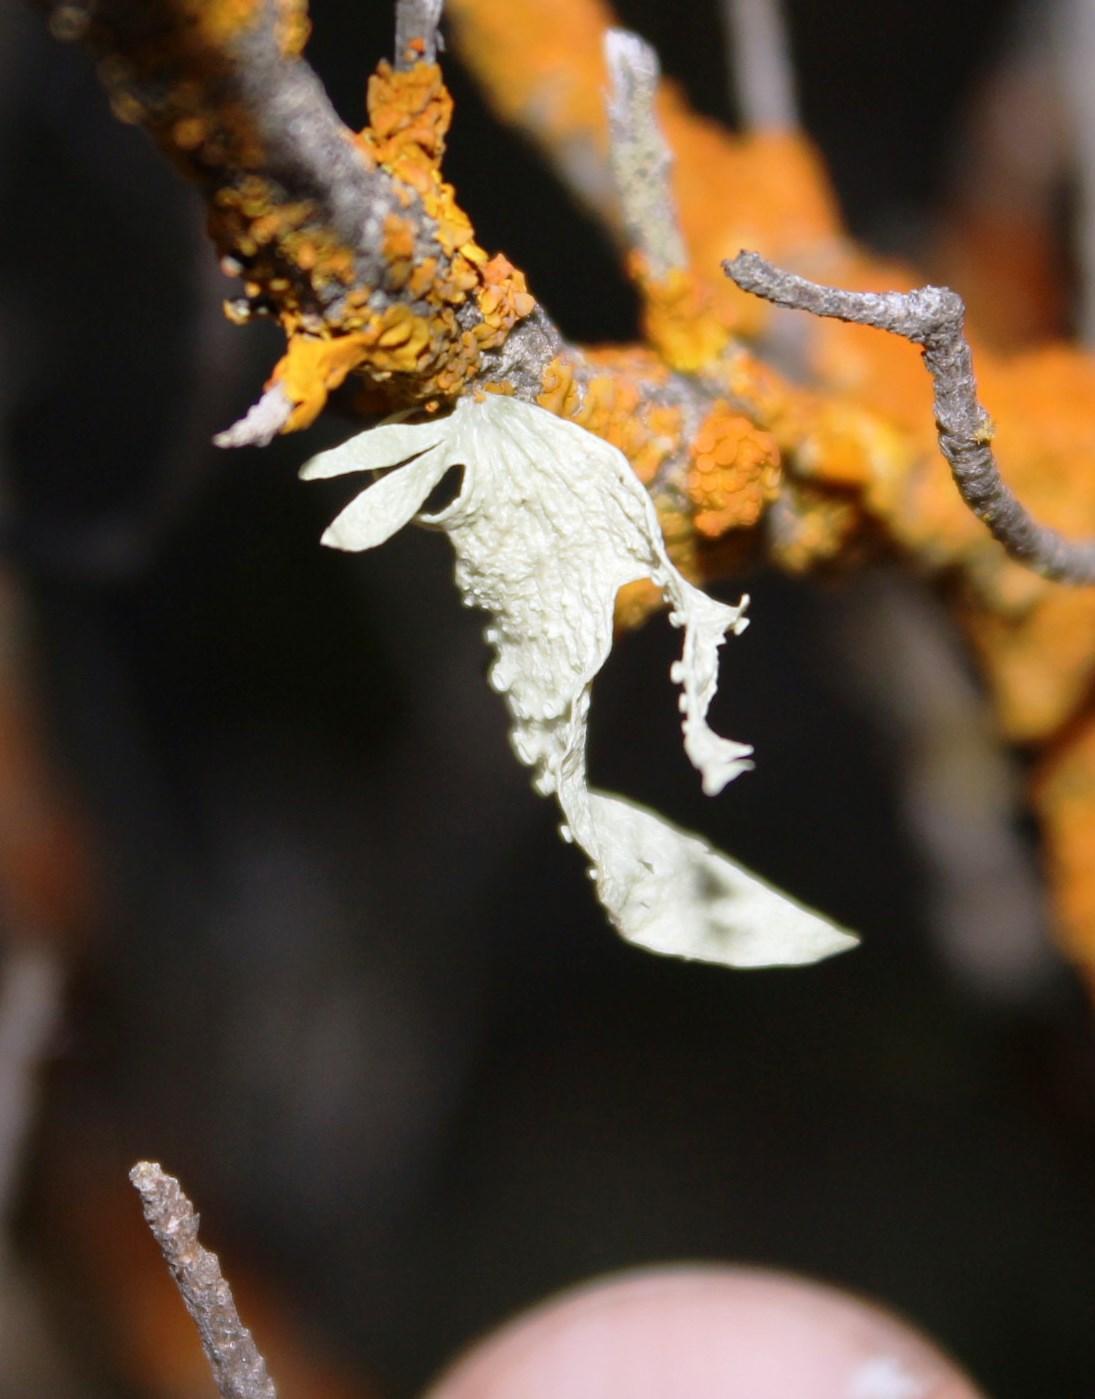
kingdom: Fungi
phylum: Ascomycota
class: Lecanoromycetes
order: Lecanorales
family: Ramalinaceae
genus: Ramalina
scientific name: Ramalina celastri
